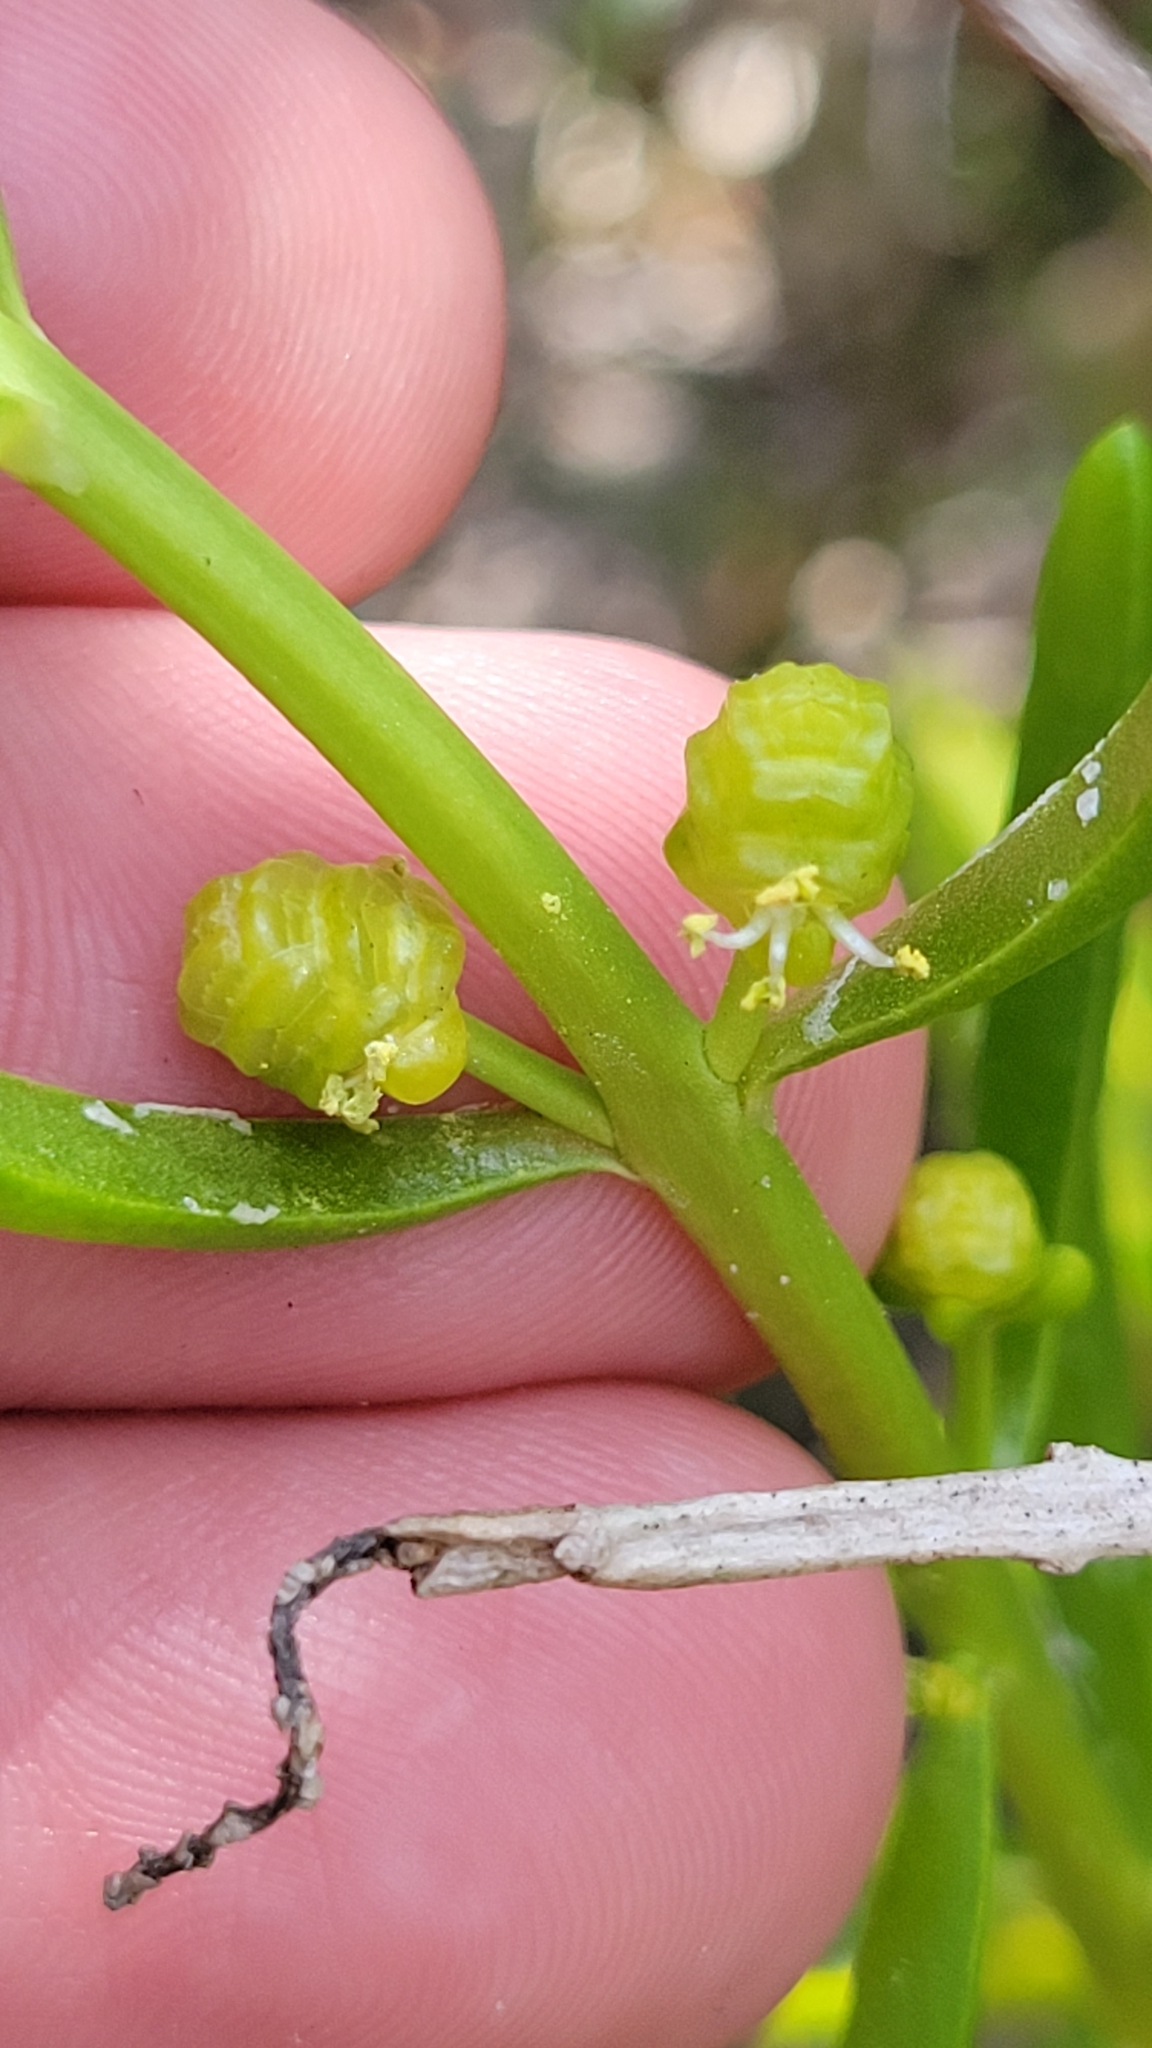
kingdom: Plantae
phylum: Tracheophyta
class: Magnoliopsida
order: Brassicales
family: Bataceae
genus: Batis
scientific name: Batis maritima
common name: Turtleweed
